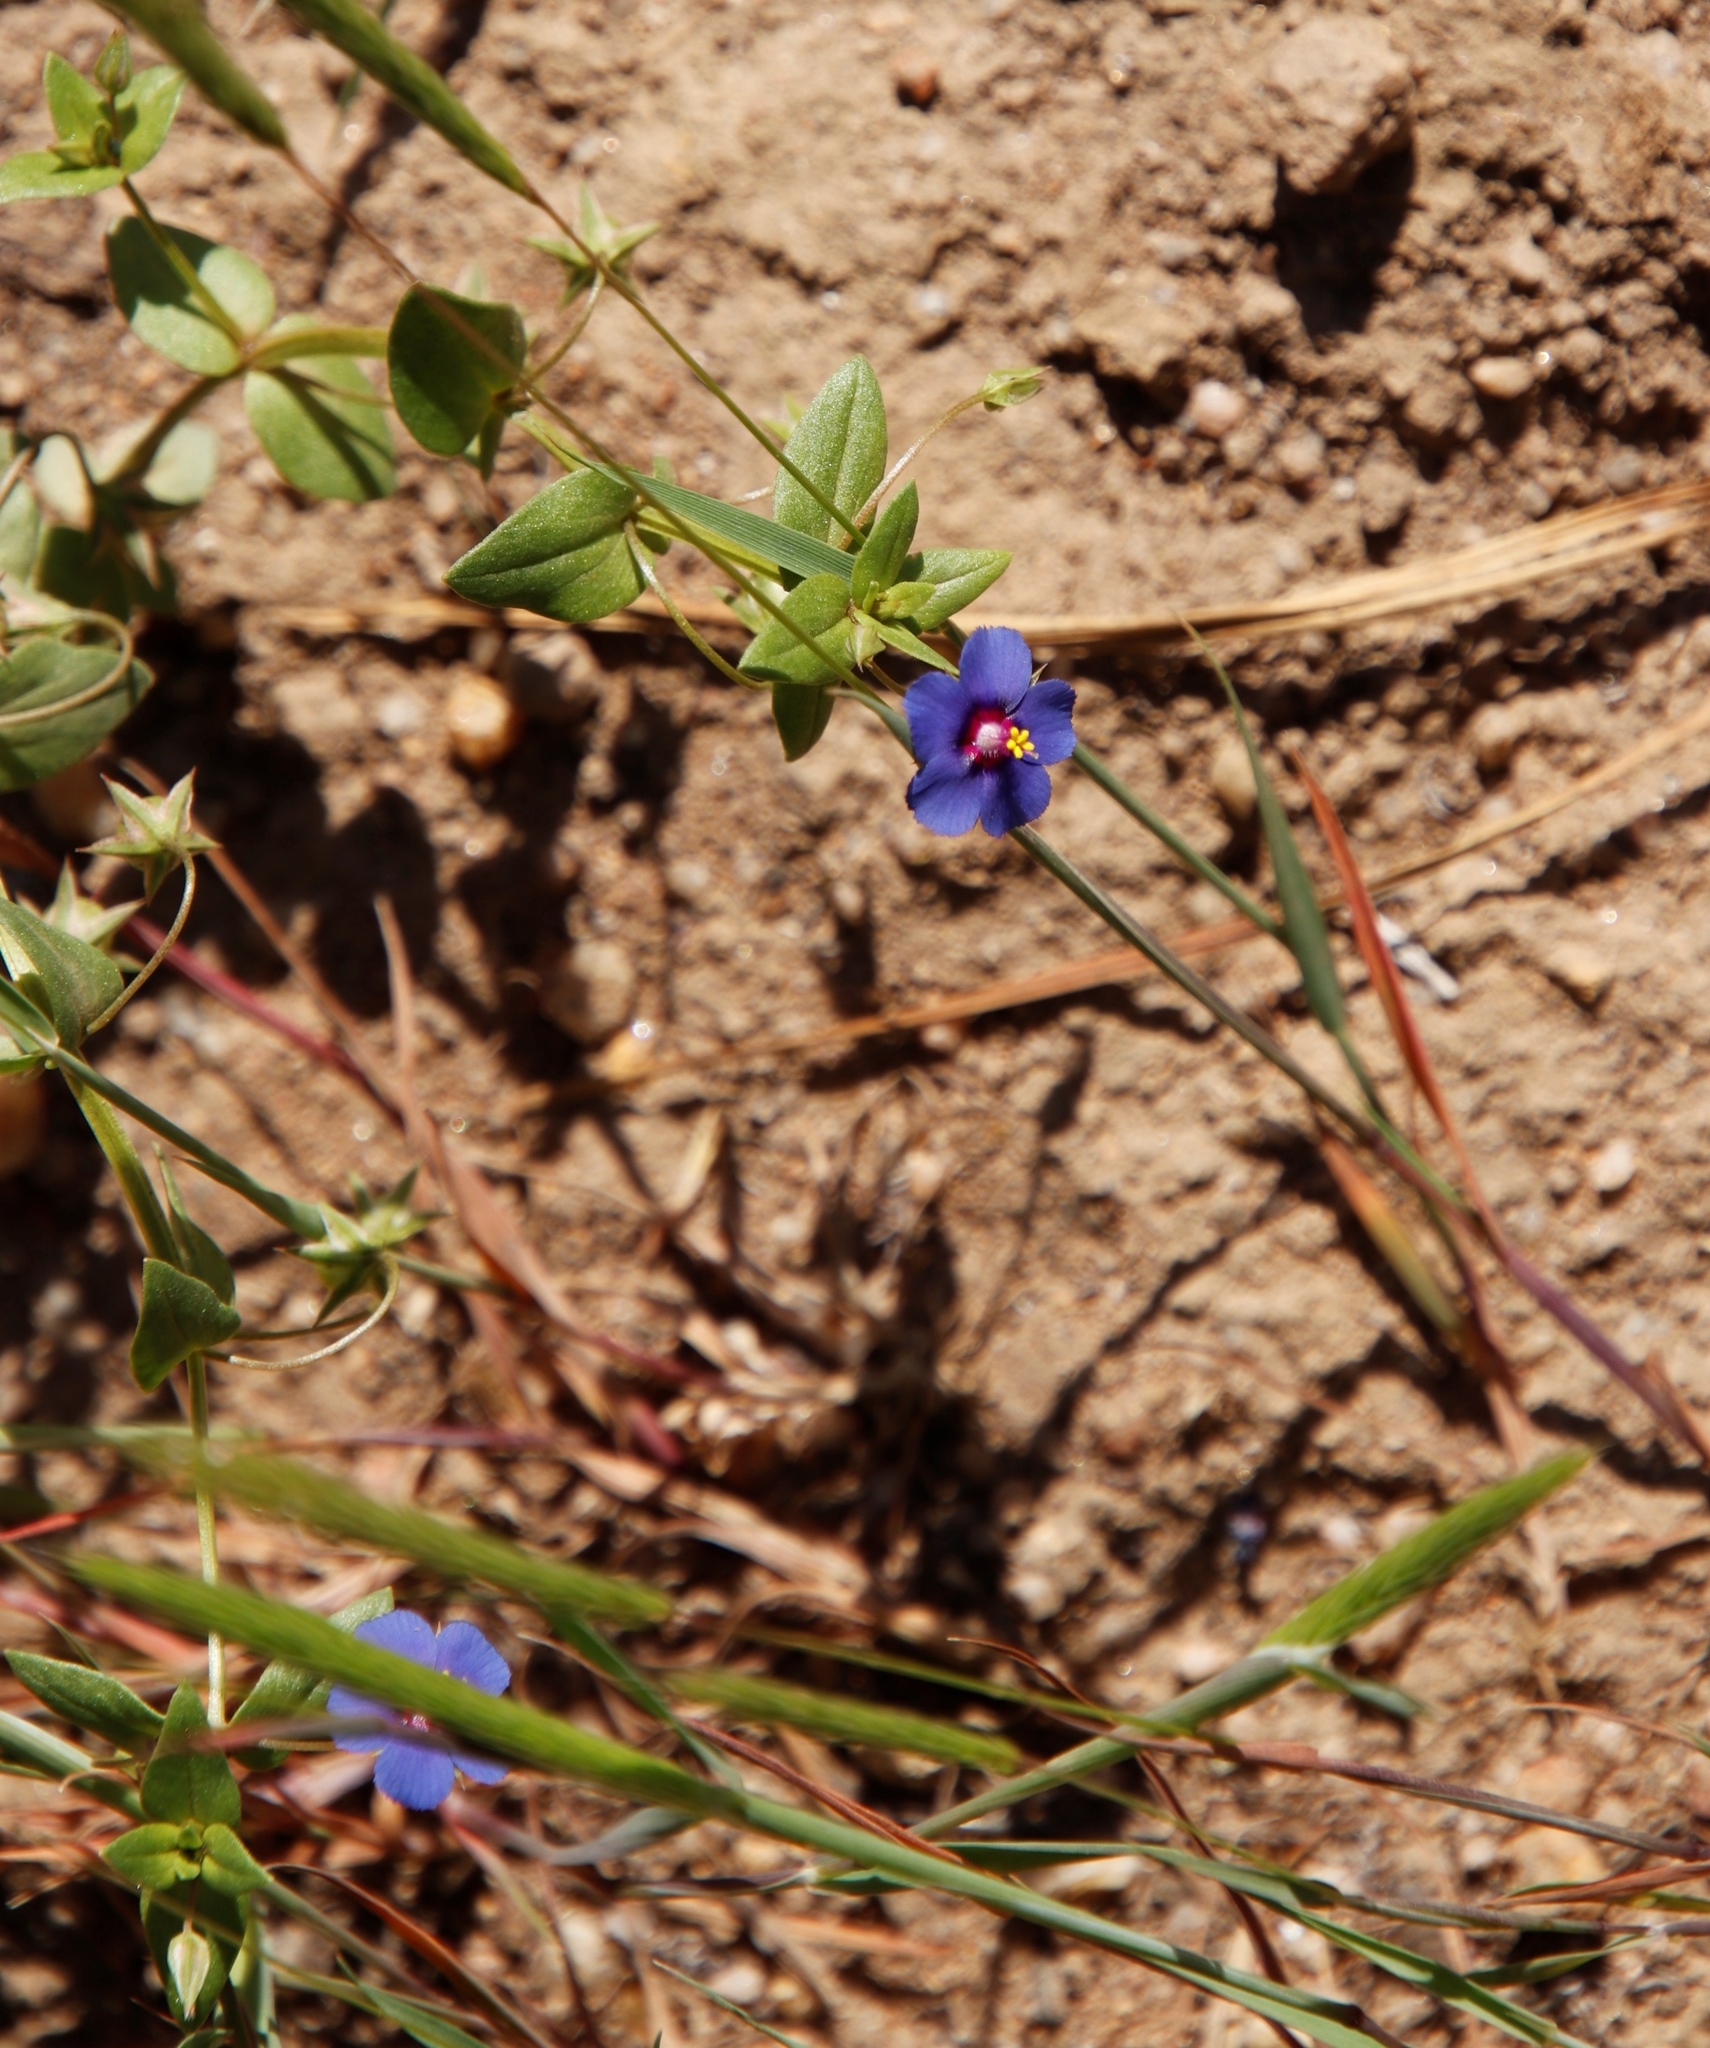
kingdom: Plantae
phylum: Tracheophyta
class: Magnoliopsida
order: Ericales
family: Primulaceae
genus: Lysimachia
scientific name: Lysimachia loeflingii
